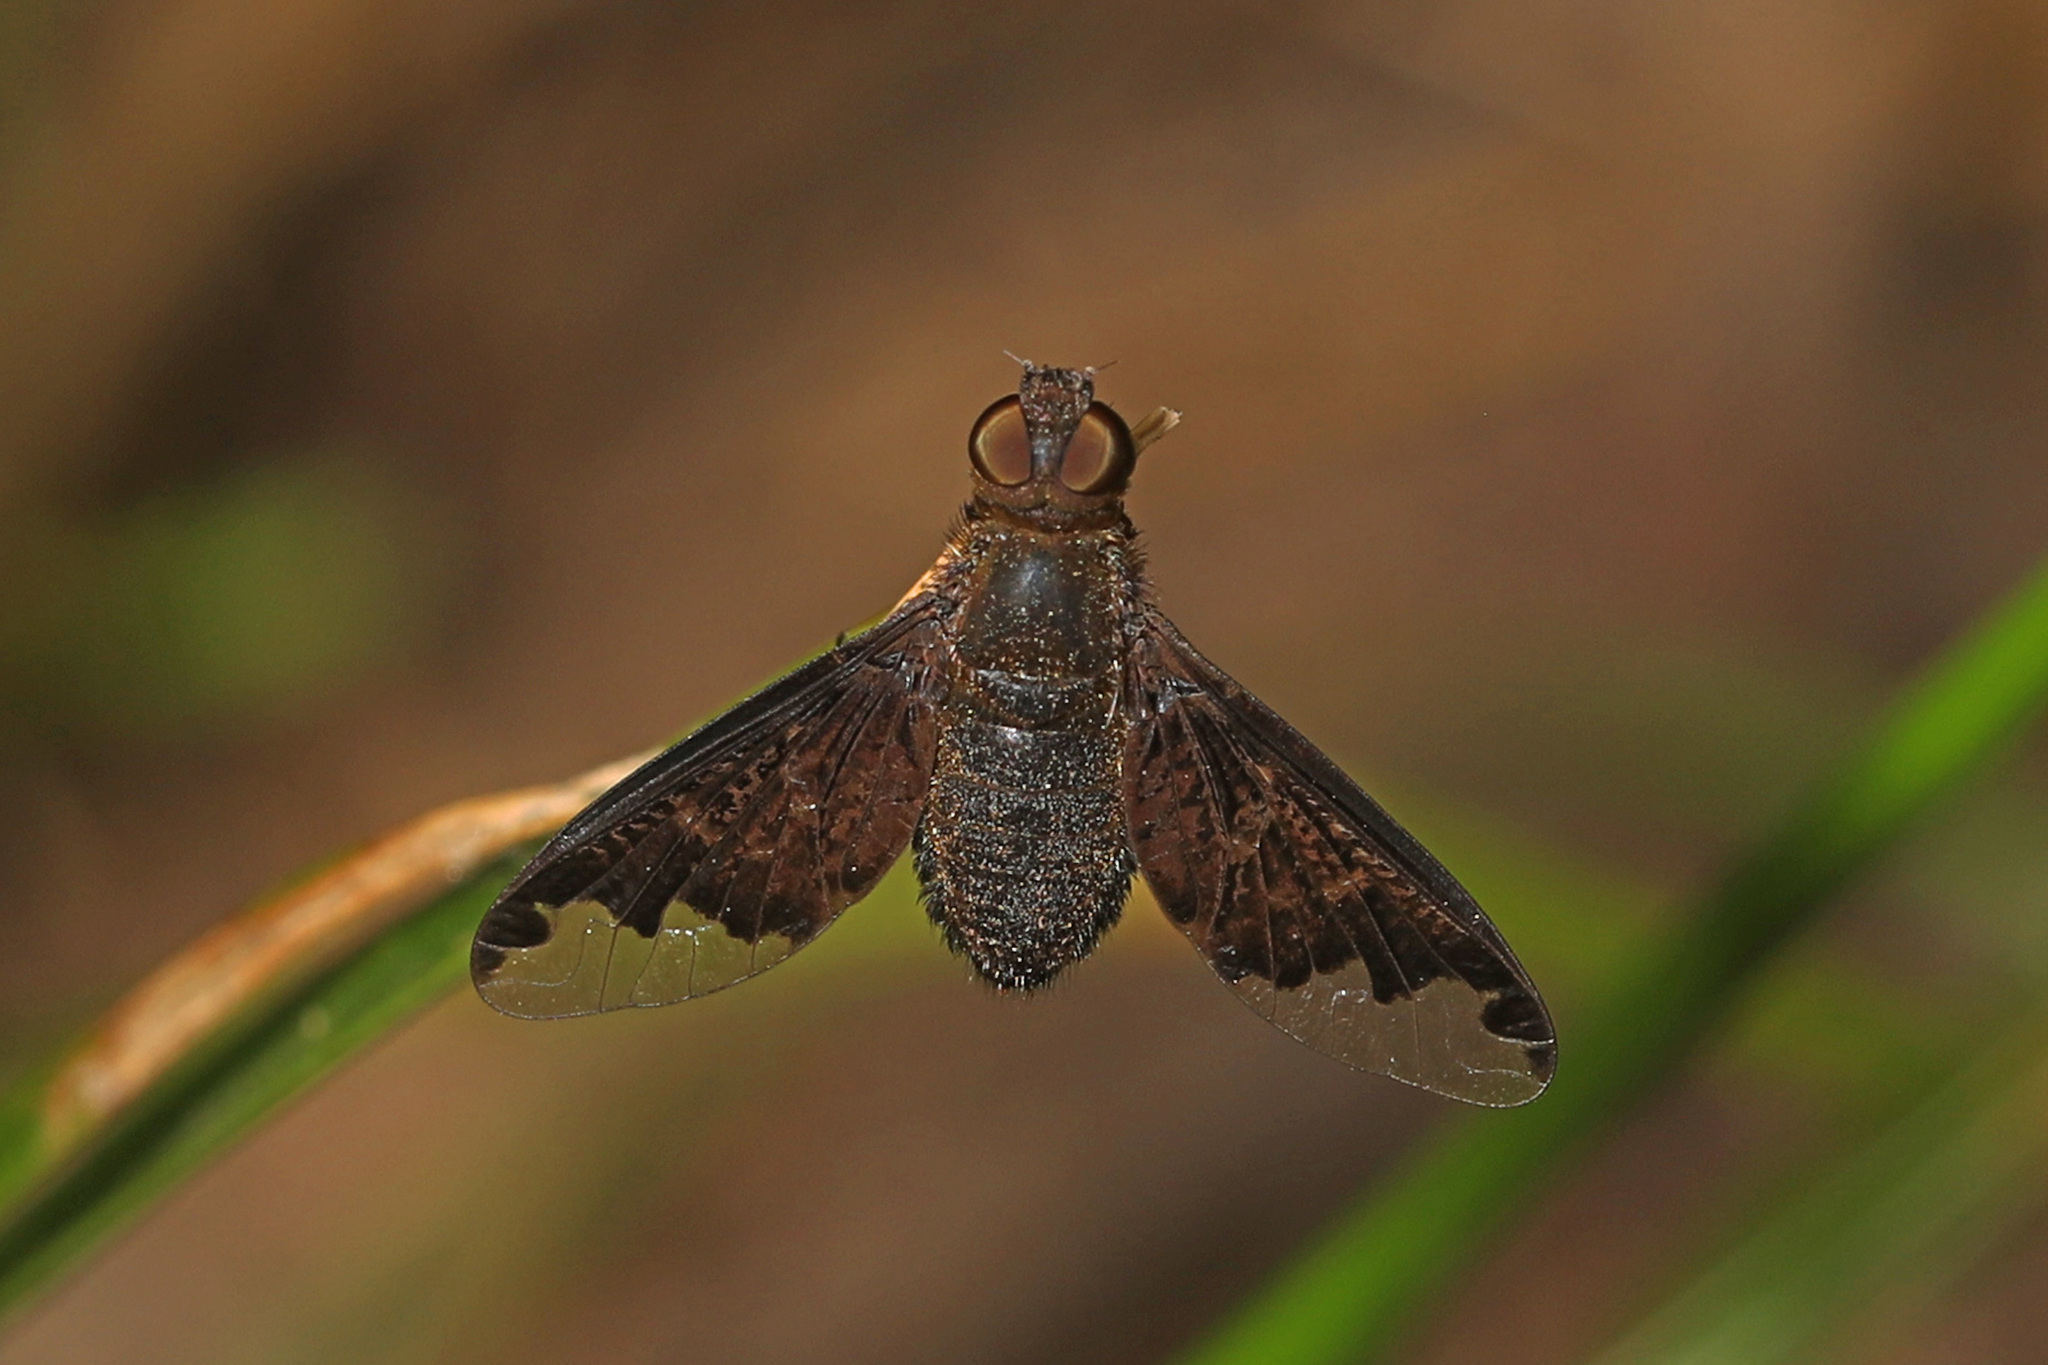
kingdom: Animalia
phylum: Arthropoda
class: Insecta
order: Diptera
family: Bombyliidae
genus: Hemipenthes
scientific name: Hemipenthes sinuosus
